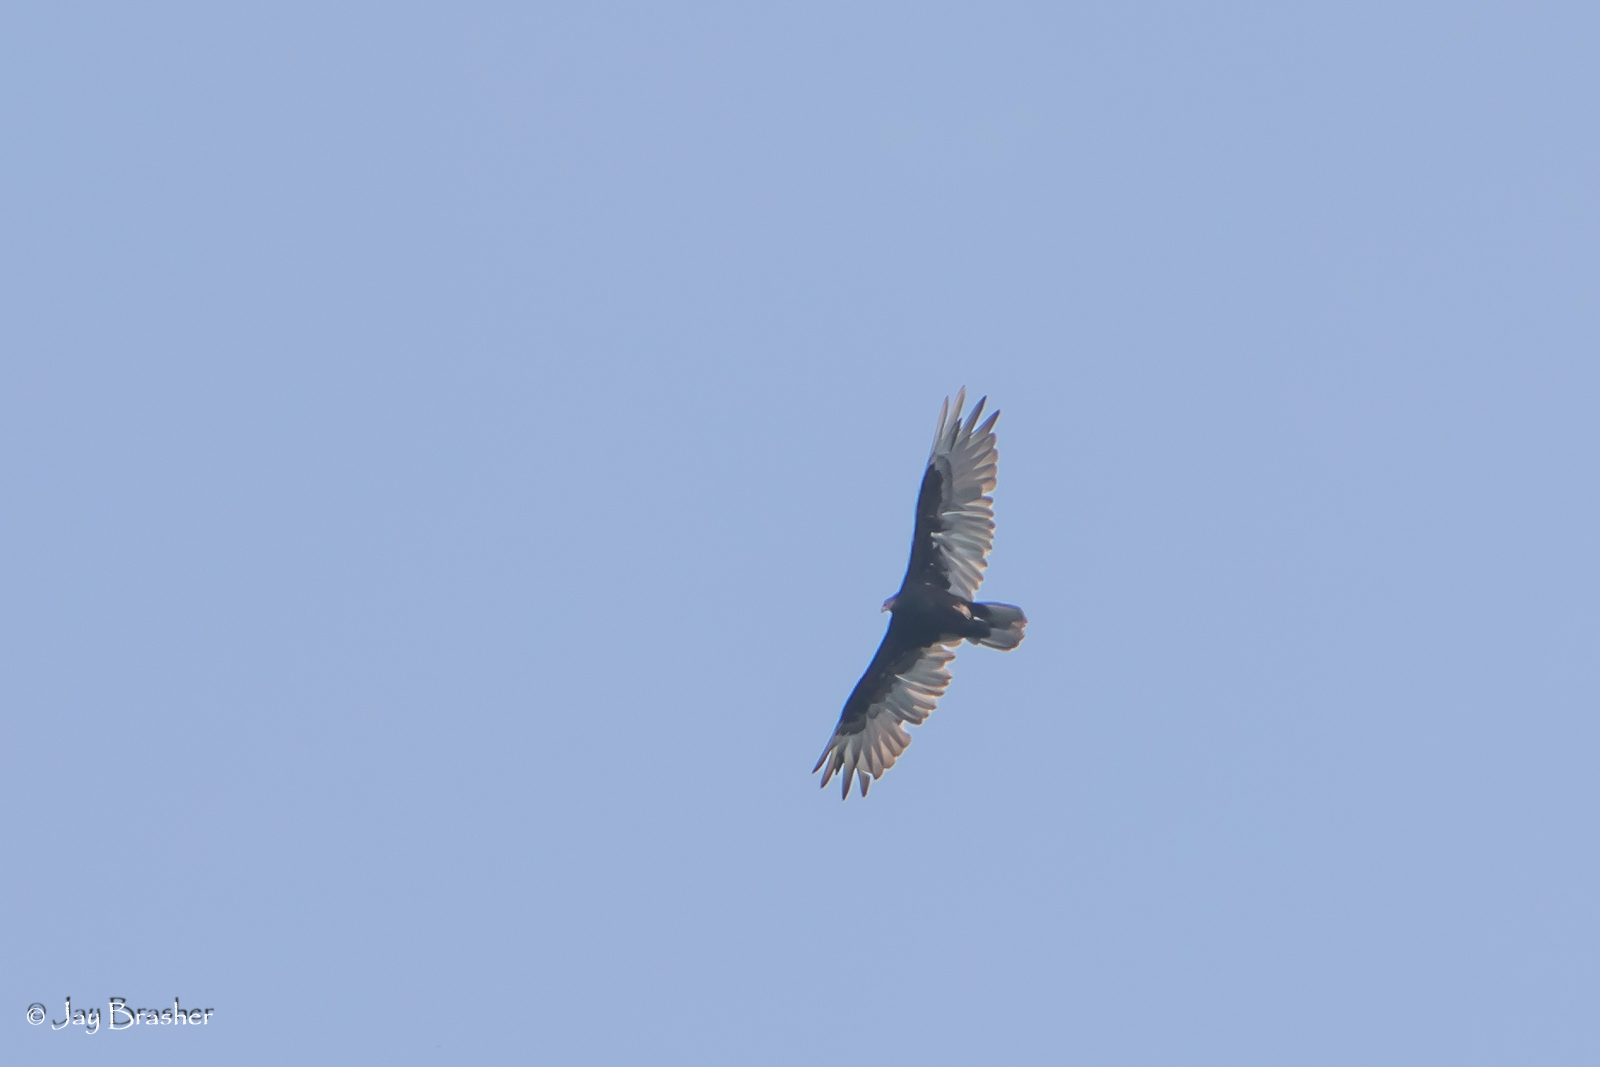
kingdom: Animalia
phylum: Chordata
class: Aves
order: Accipitriformes
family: Cathartidae
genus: Cathartes
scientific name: Cathartes aura
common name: Turkey vulture
